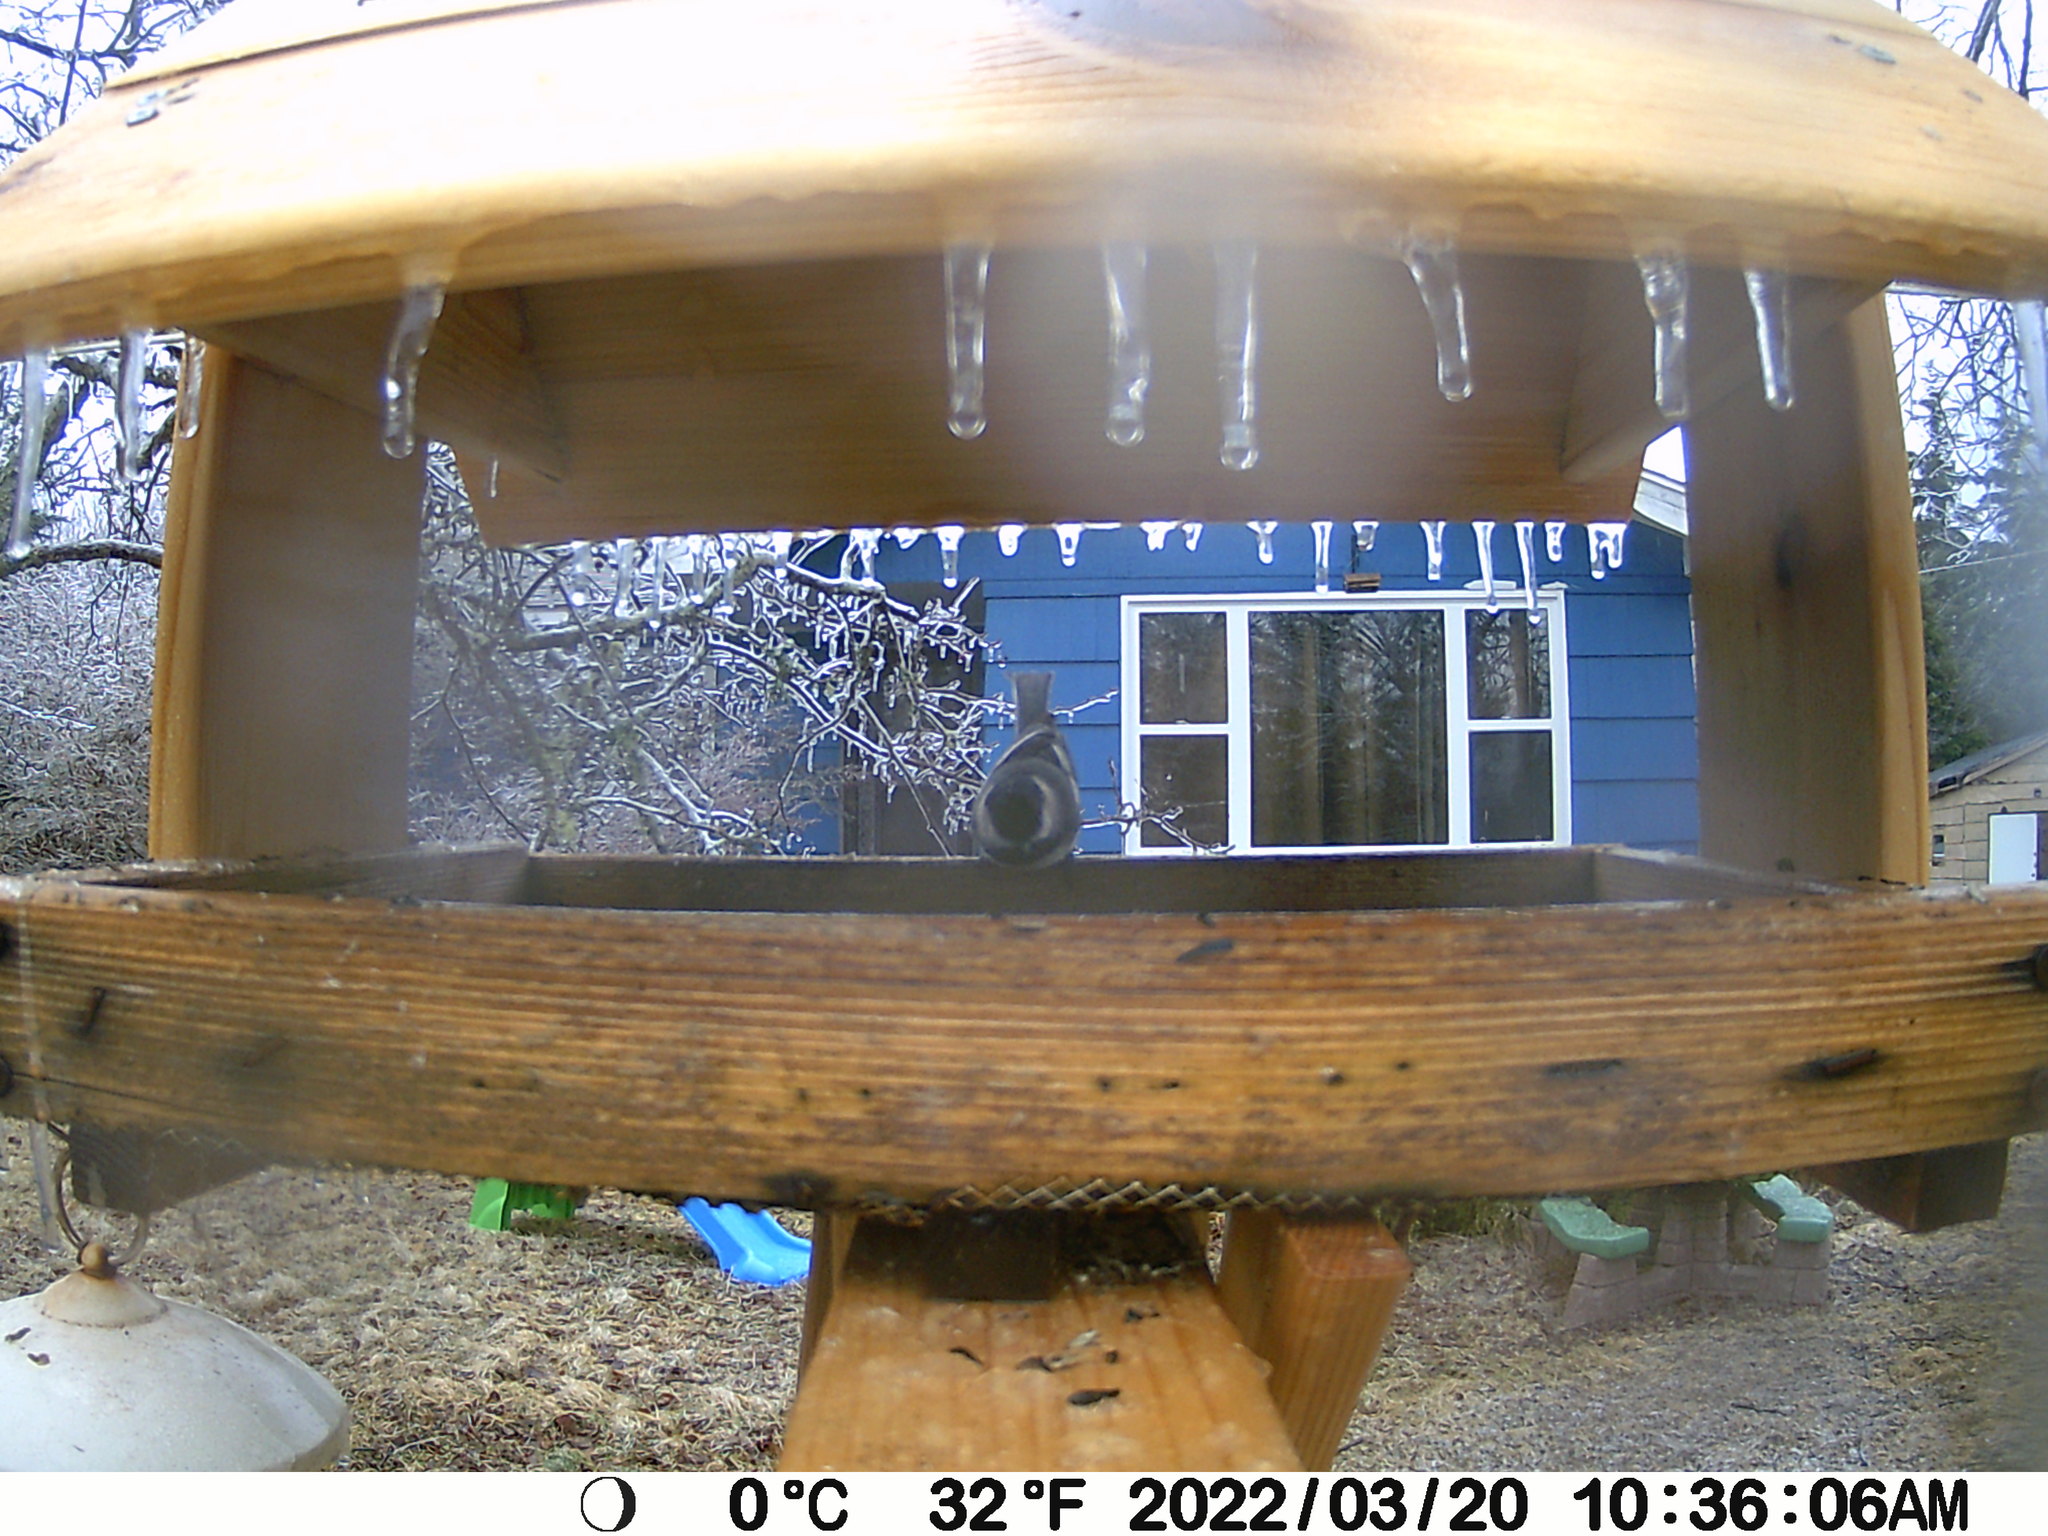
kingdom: Animalia
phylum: Chordata
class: Aves
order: Passeriformes
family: Paridae
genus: Poecile
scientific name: Poecile atricapillus
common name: Black-capped chickadee
